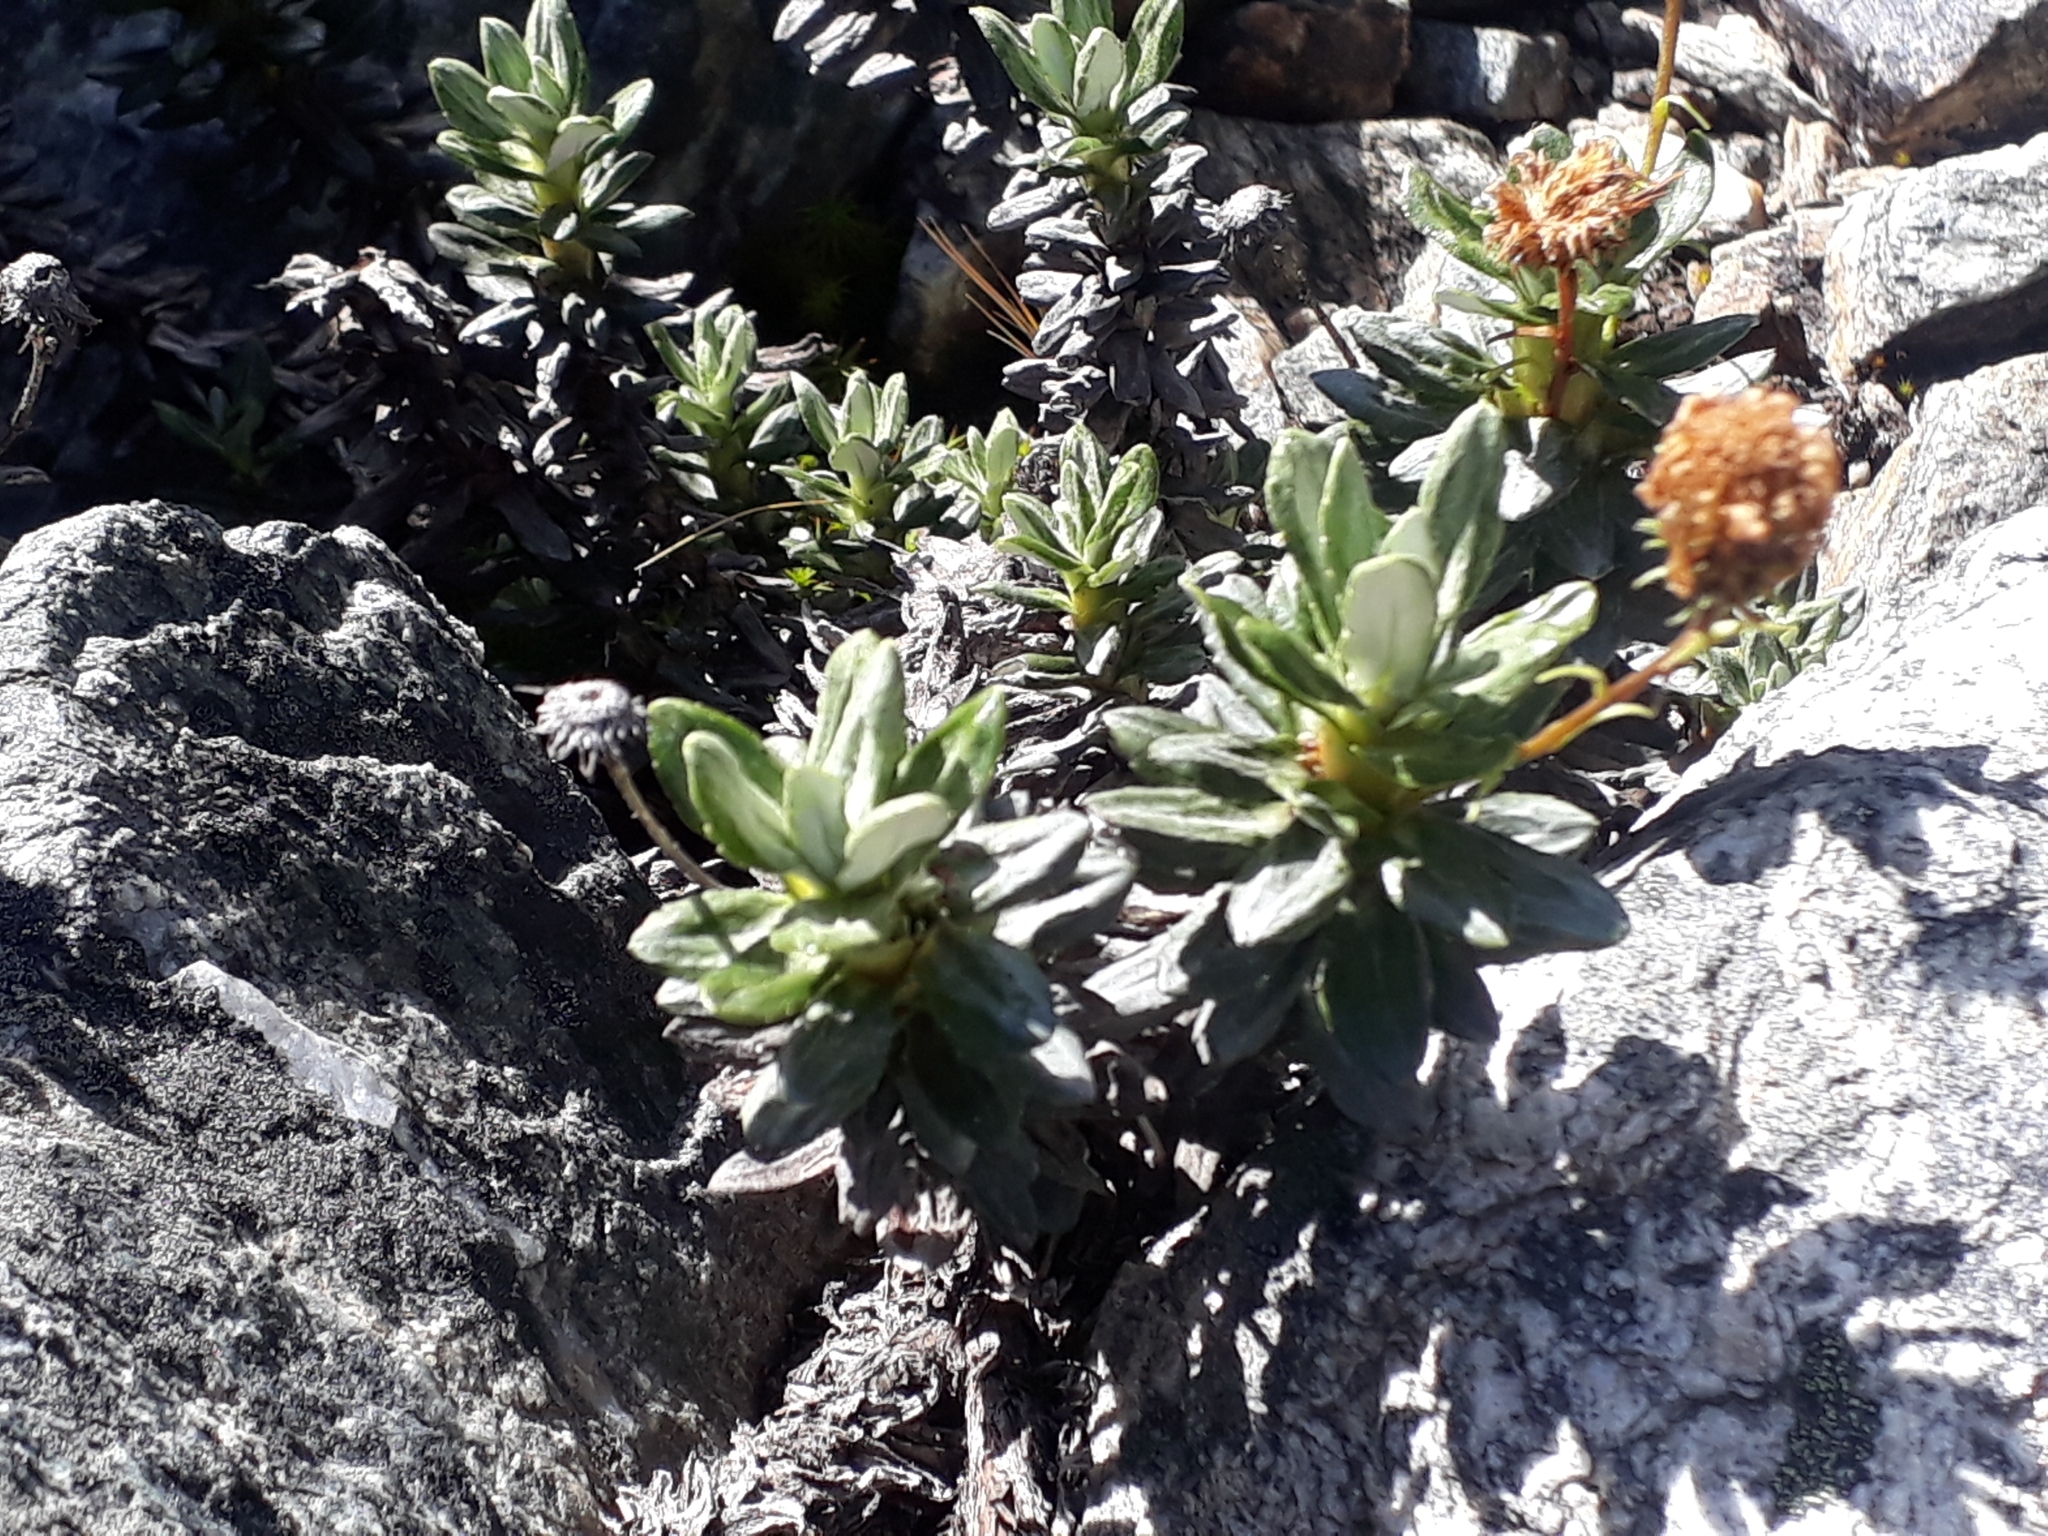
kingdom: Plantae
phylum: Tracheophyta
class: Magnoliopsida
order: Asterales
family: Asteraceae
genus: Celmisia
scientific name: Celmisia brevifolia
